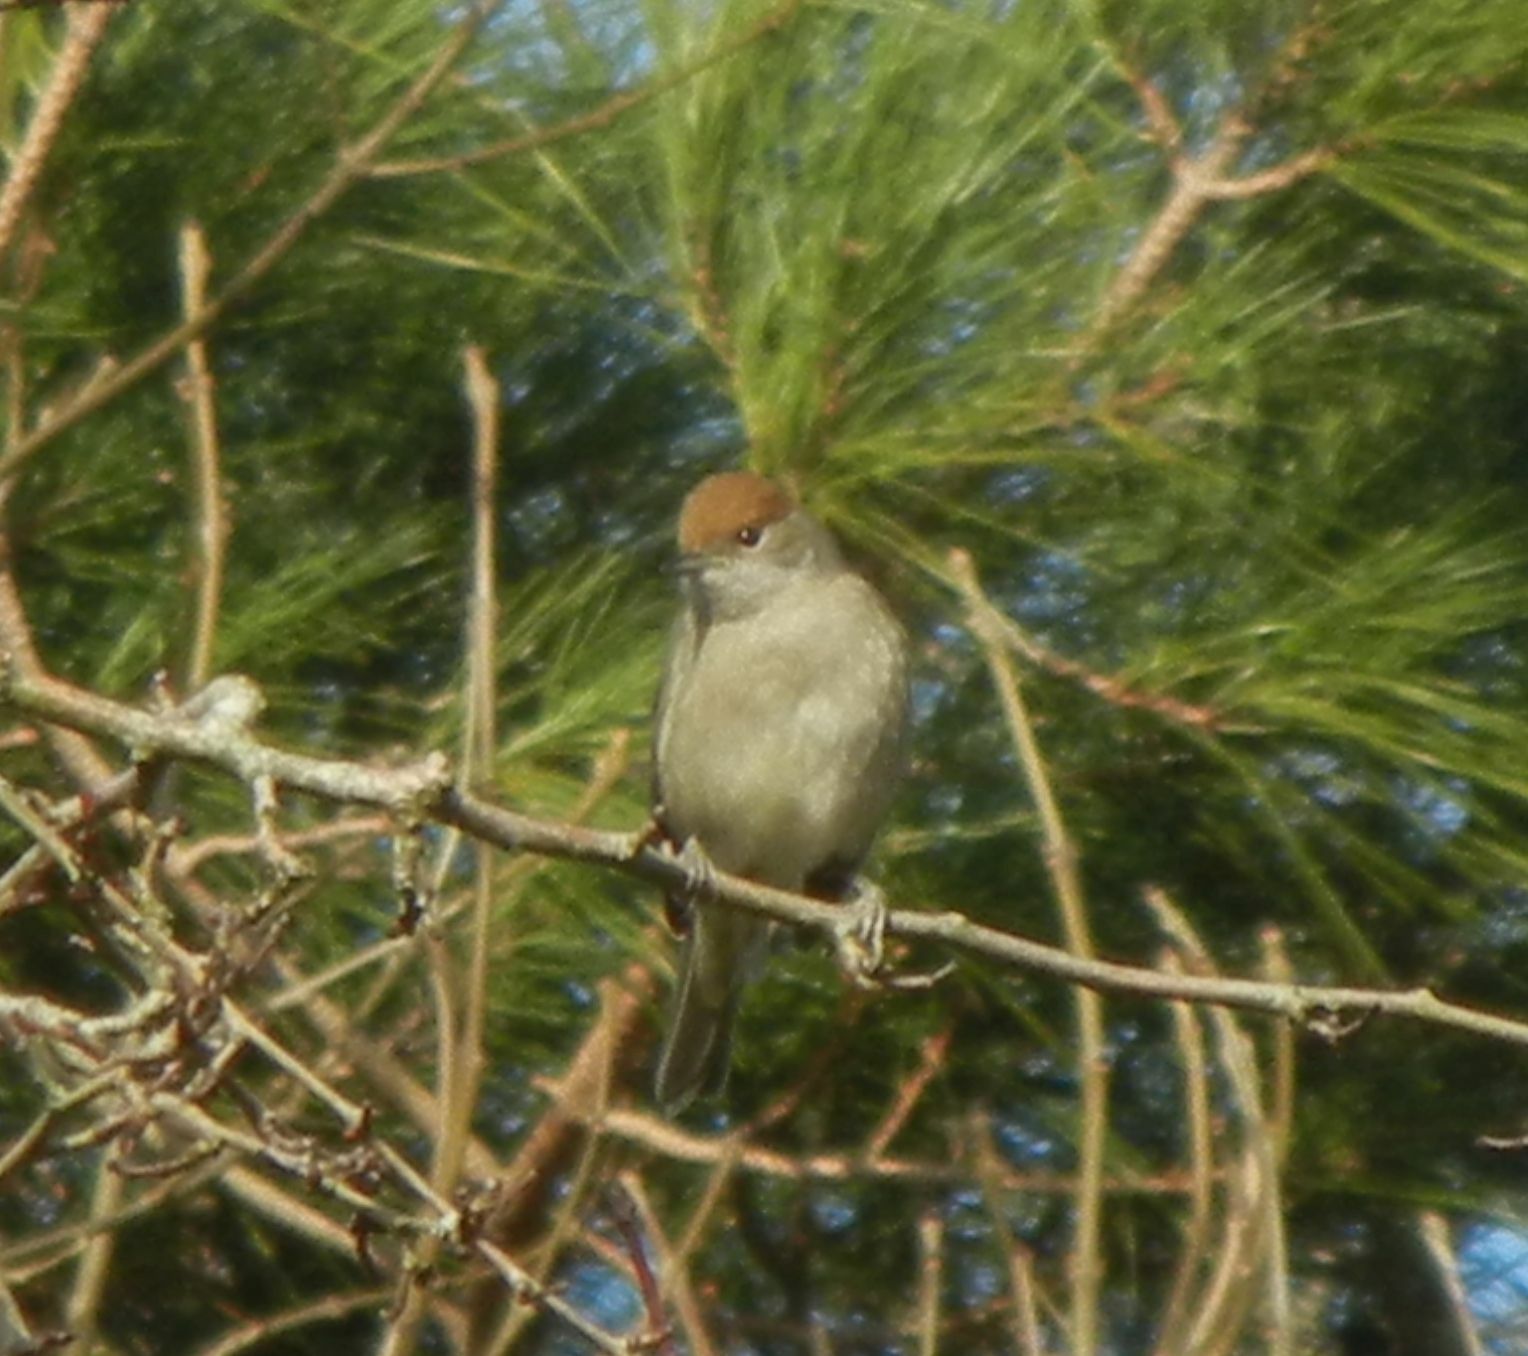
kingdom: Animalia
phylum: Chordata
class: Aves
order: Passeriformes
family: Sylviidae
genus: Sylvia
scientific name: Sylvia atricapilla
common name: Eurasian blackcap
